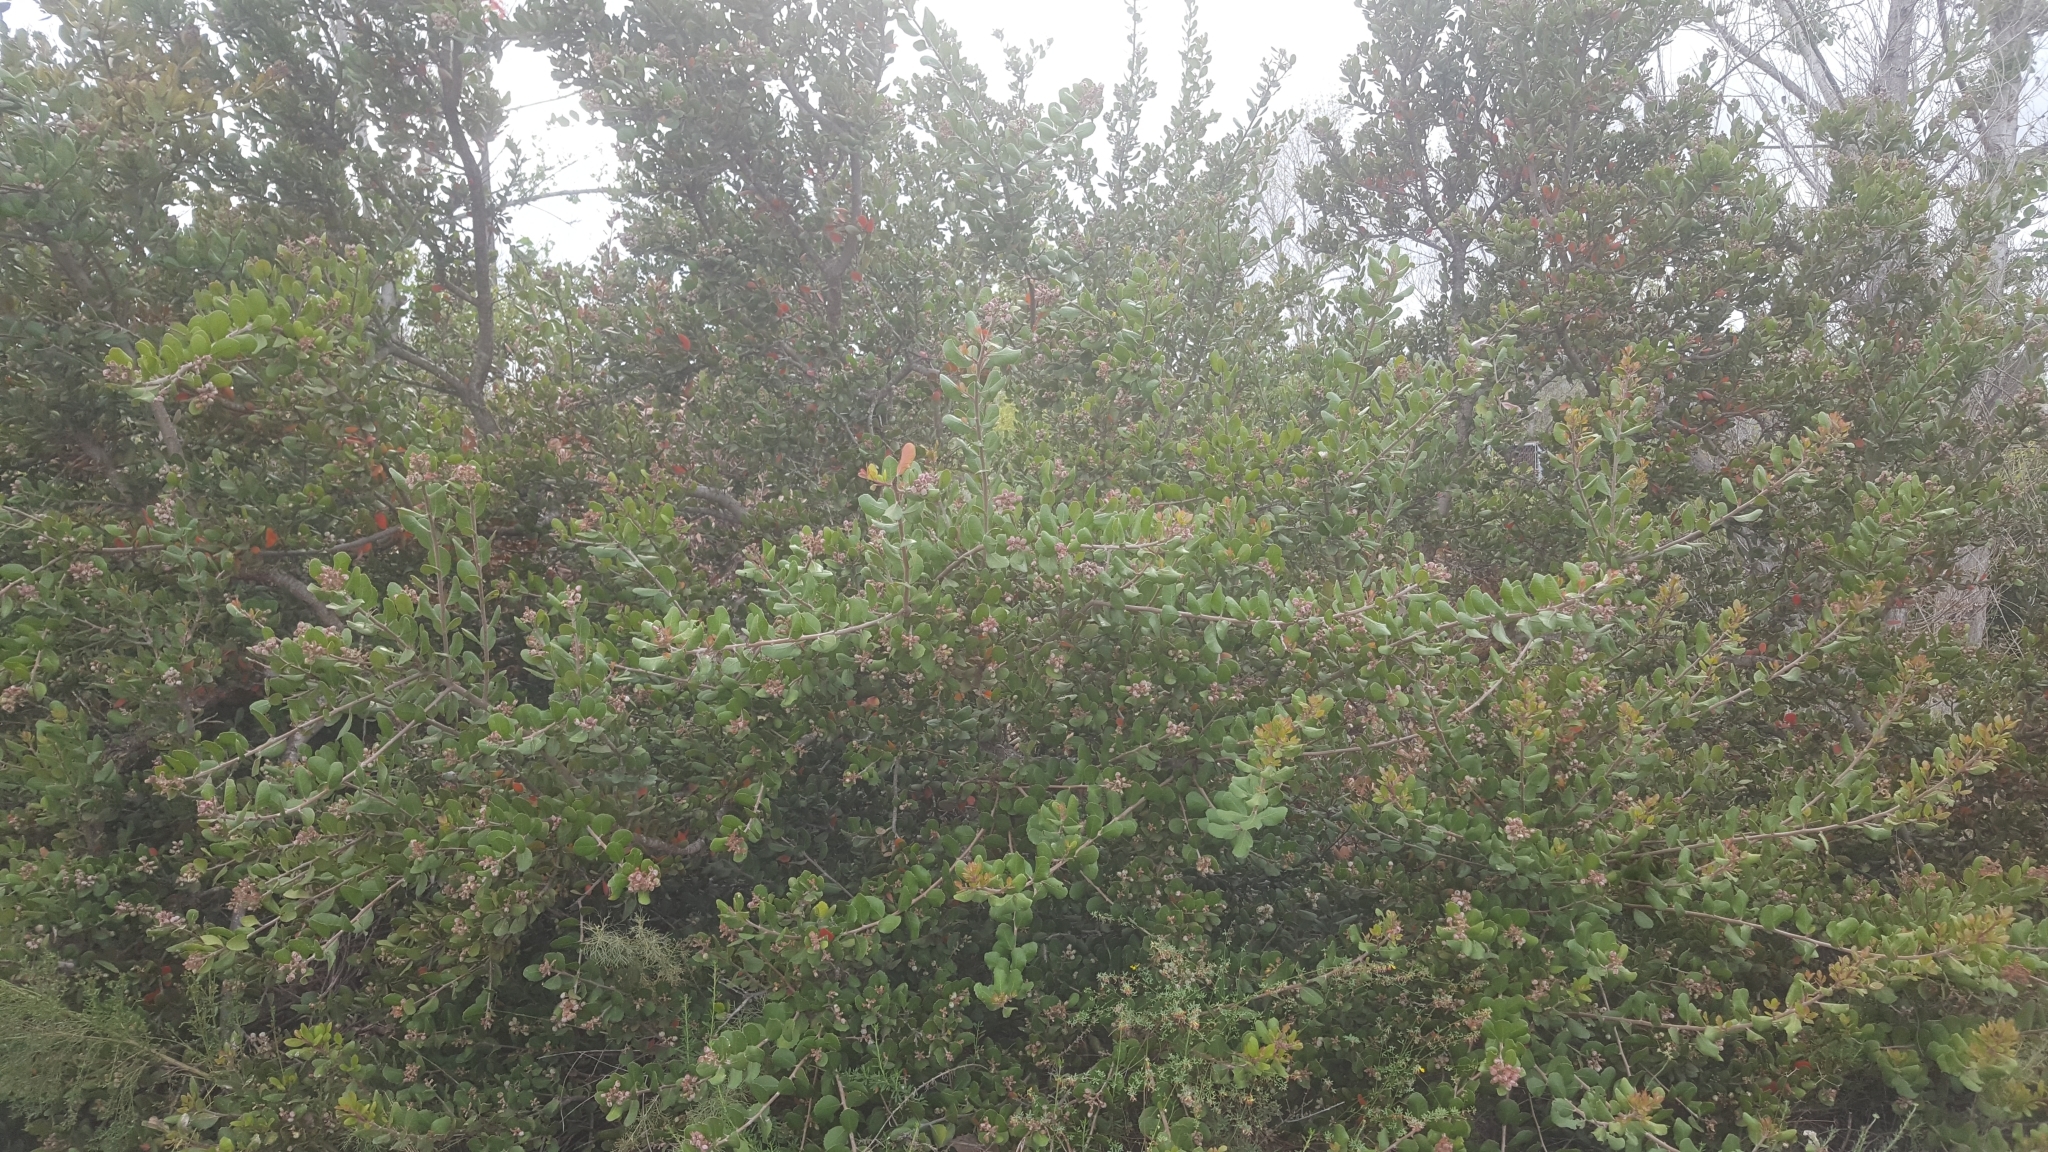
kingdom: Plantae
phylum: Tracheophyta
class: Magnoliopsida
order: Sapindales
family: Anacardiaceae
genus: Rhus
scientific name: Rhus integrifolia
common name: Lemonade sumac
